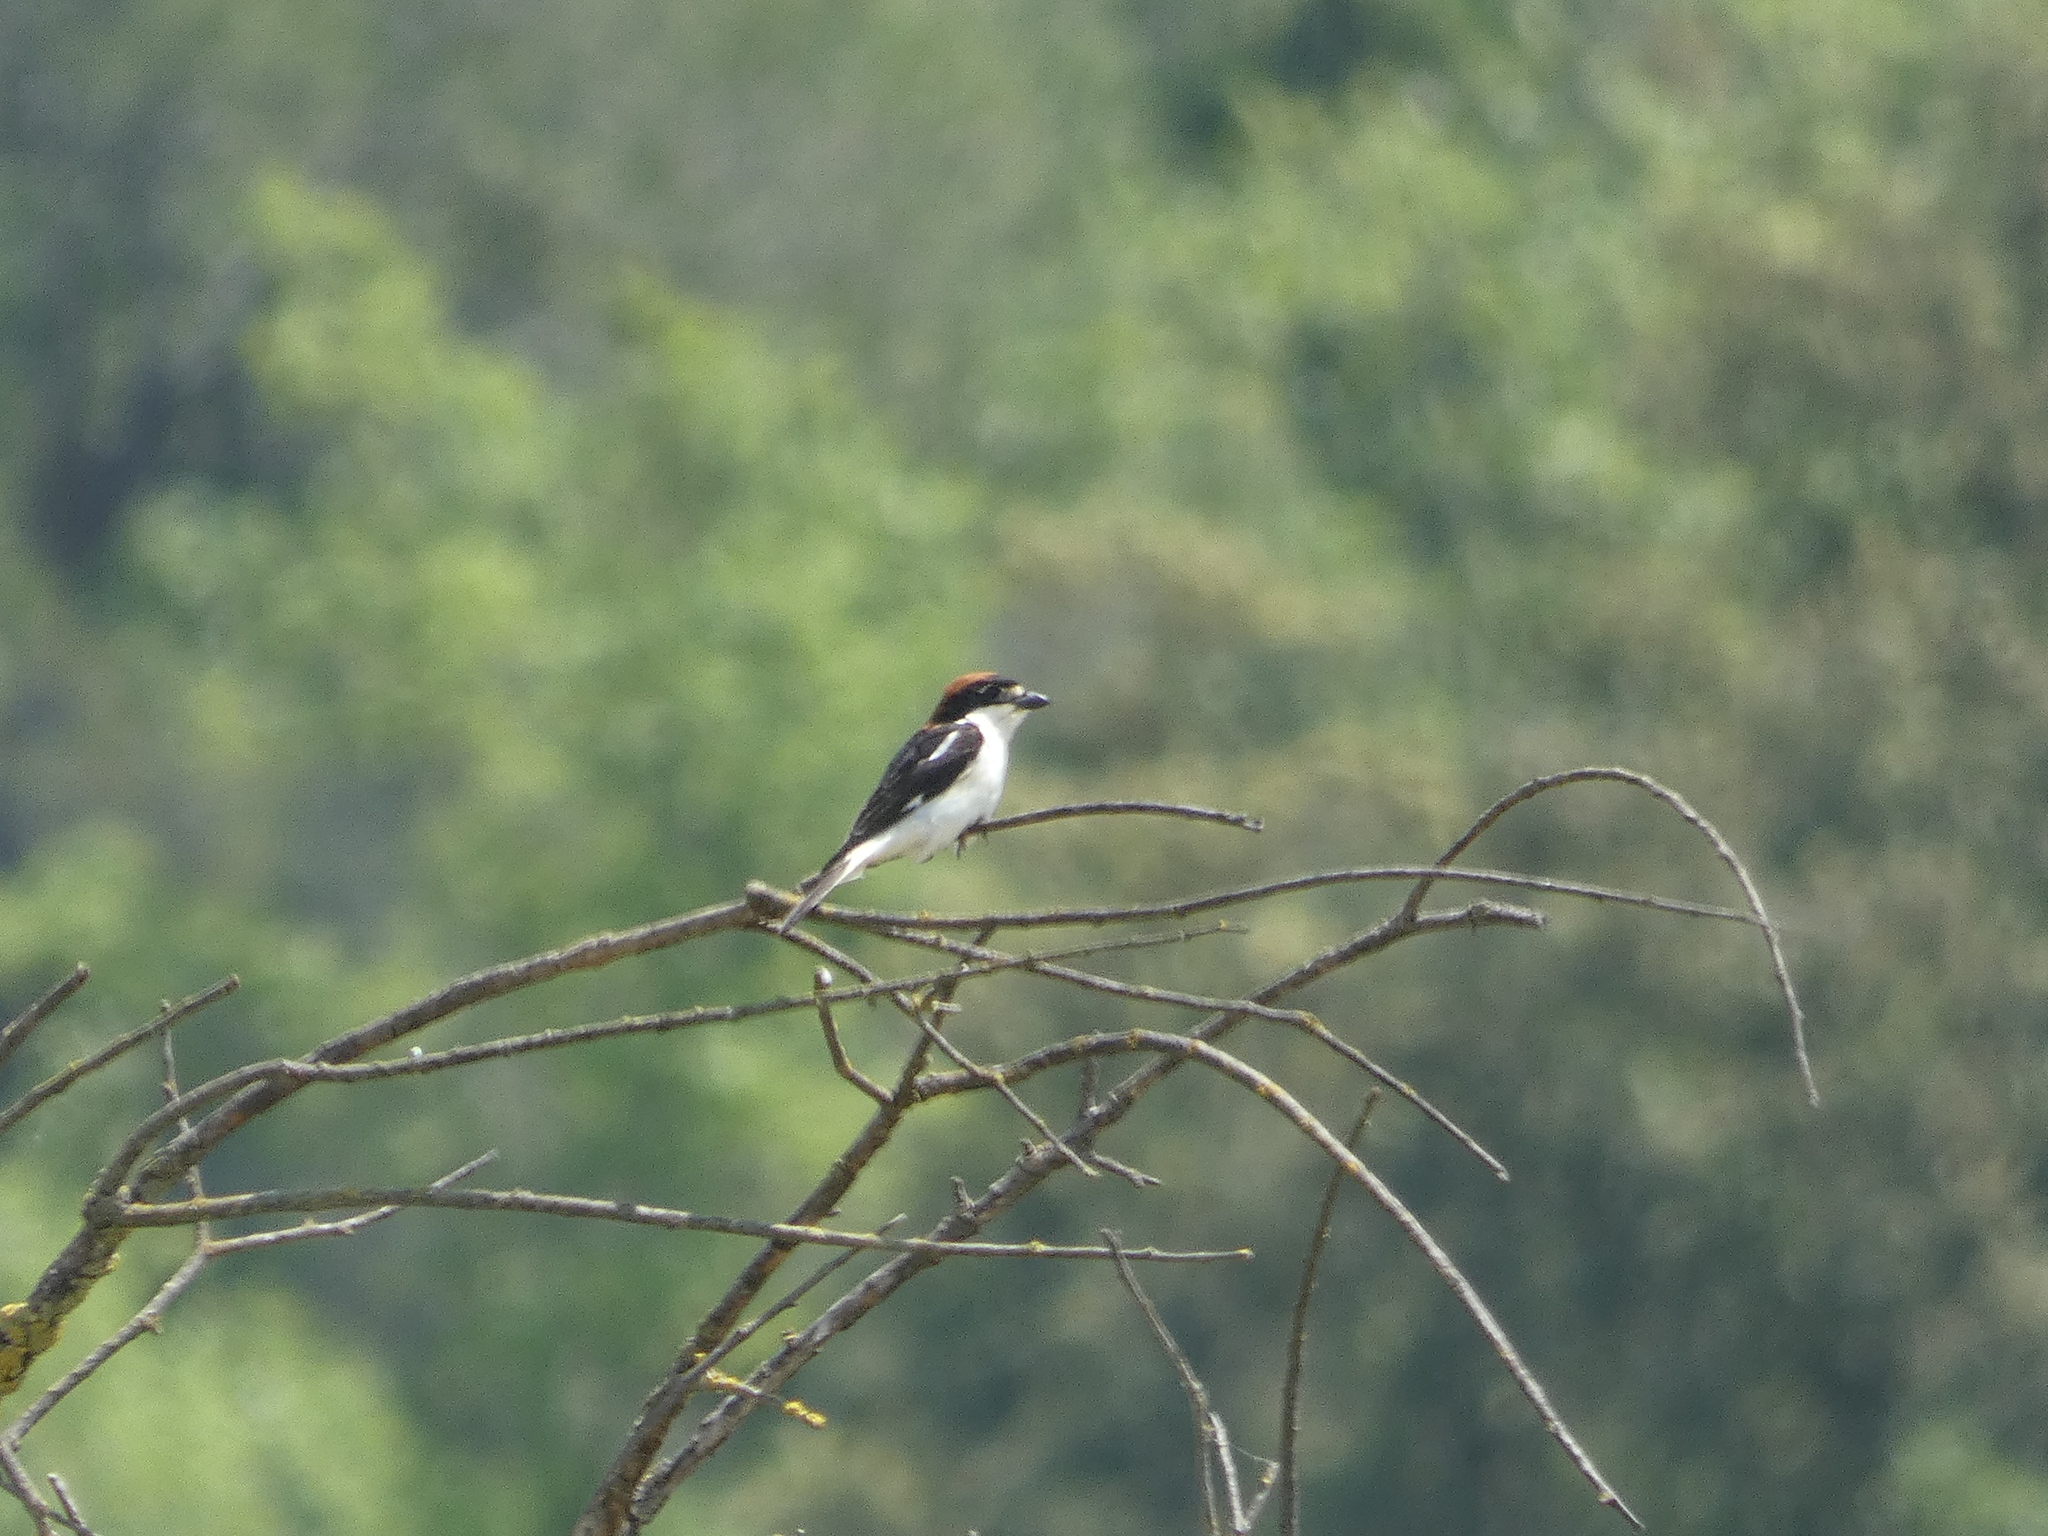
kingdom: Animalia
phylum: Chordata
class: Aves
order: Passeriformes
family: Laniidae
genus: Lanius
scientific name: Lanius senator
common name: Woodchat shrike
